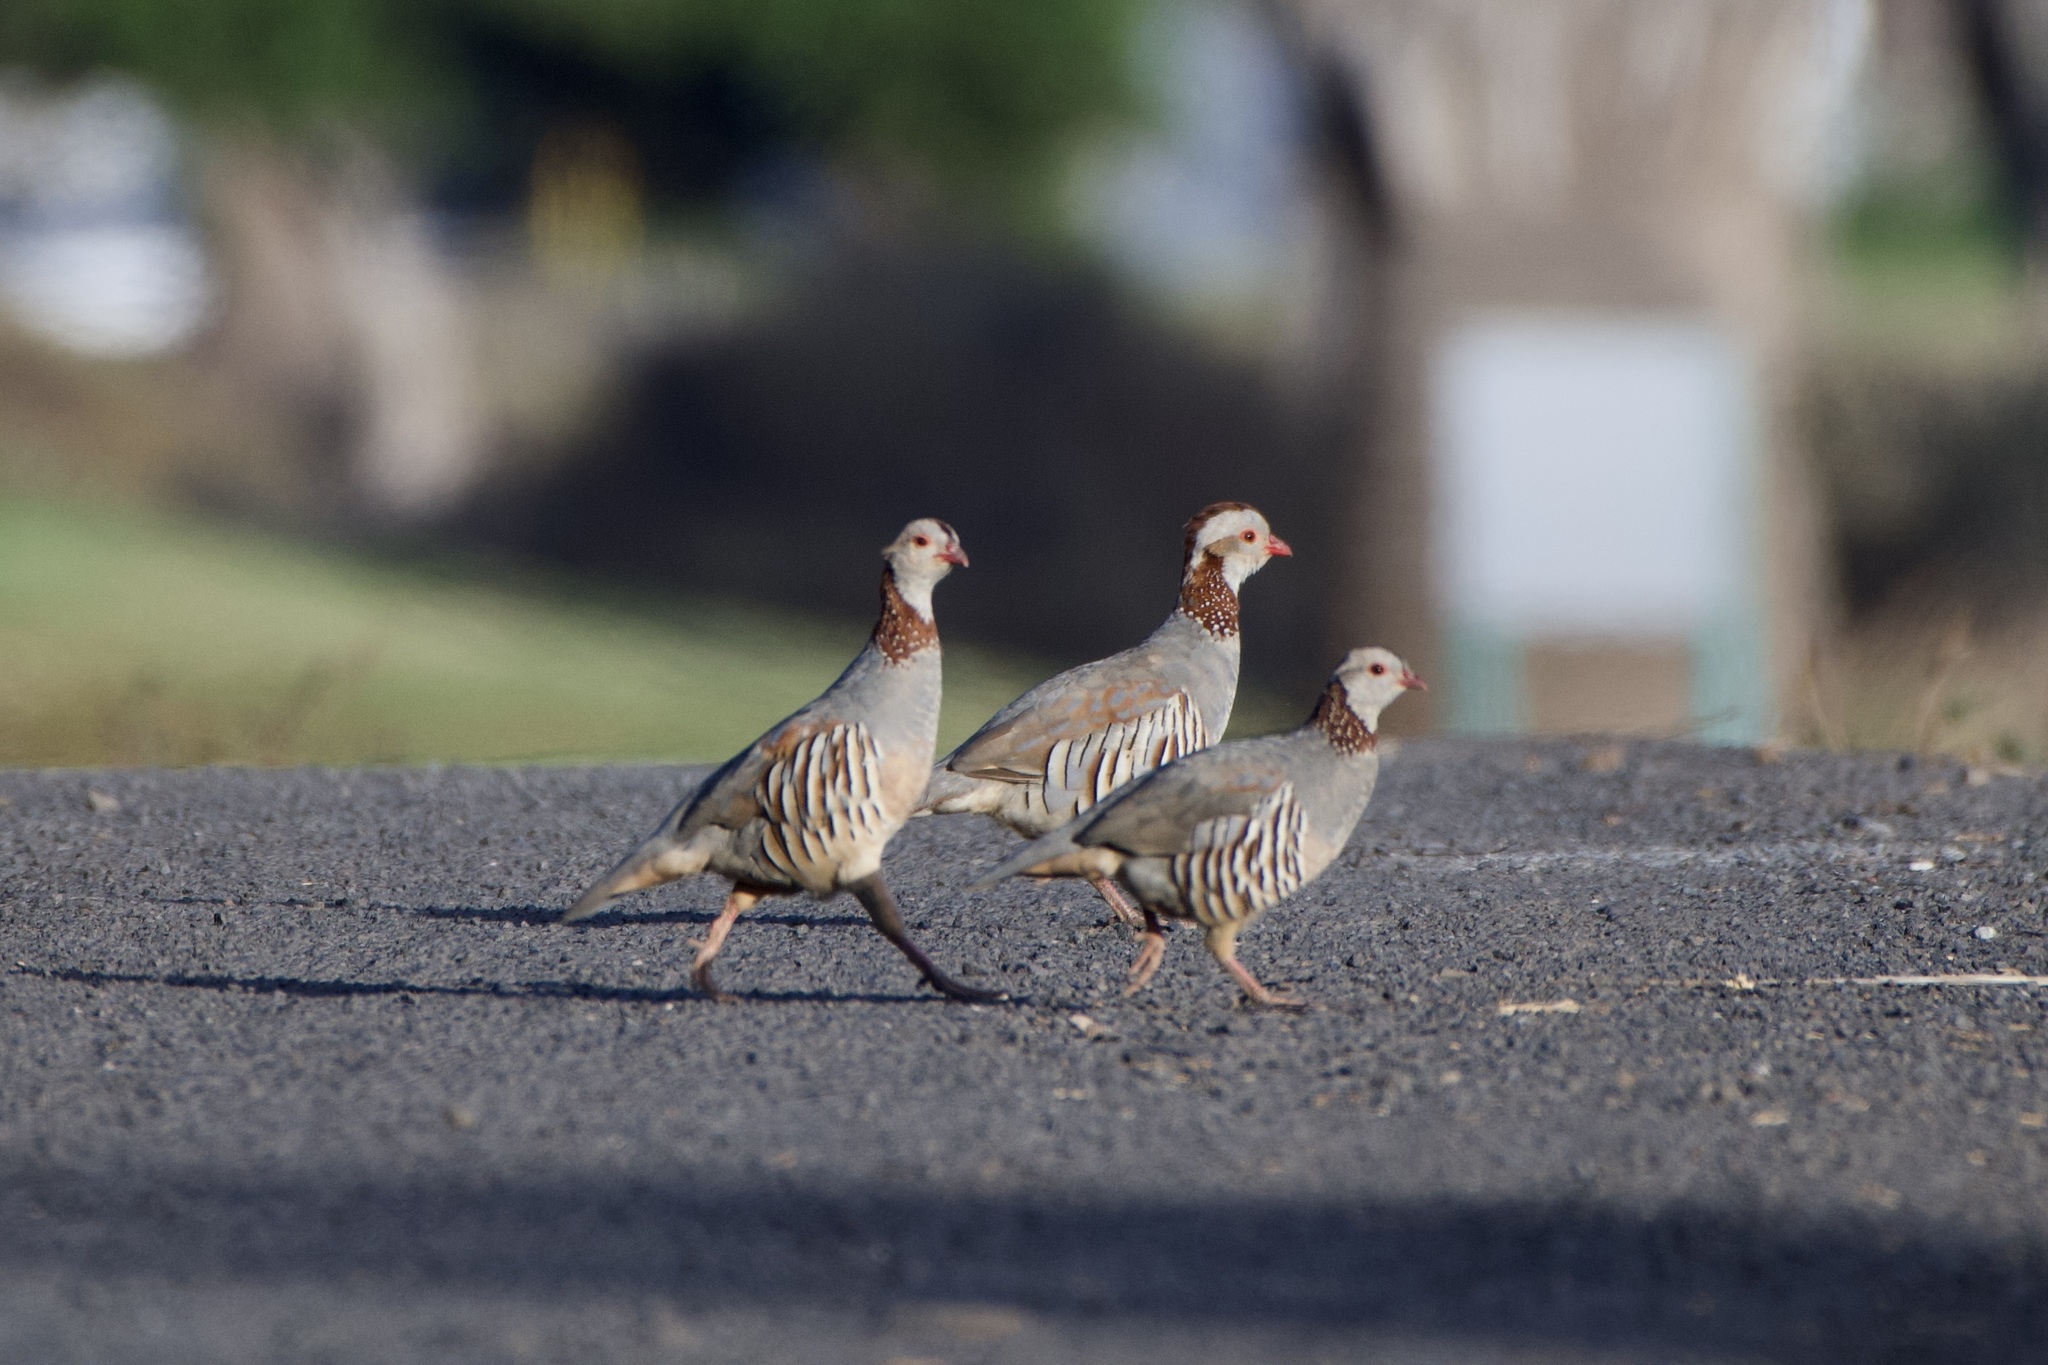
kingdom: Animalia
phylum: Chordata
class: Aves
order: Galliformes
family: Phasianidae
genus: Alectoris
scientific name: Alectoris barbara
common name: Barbary partridge
